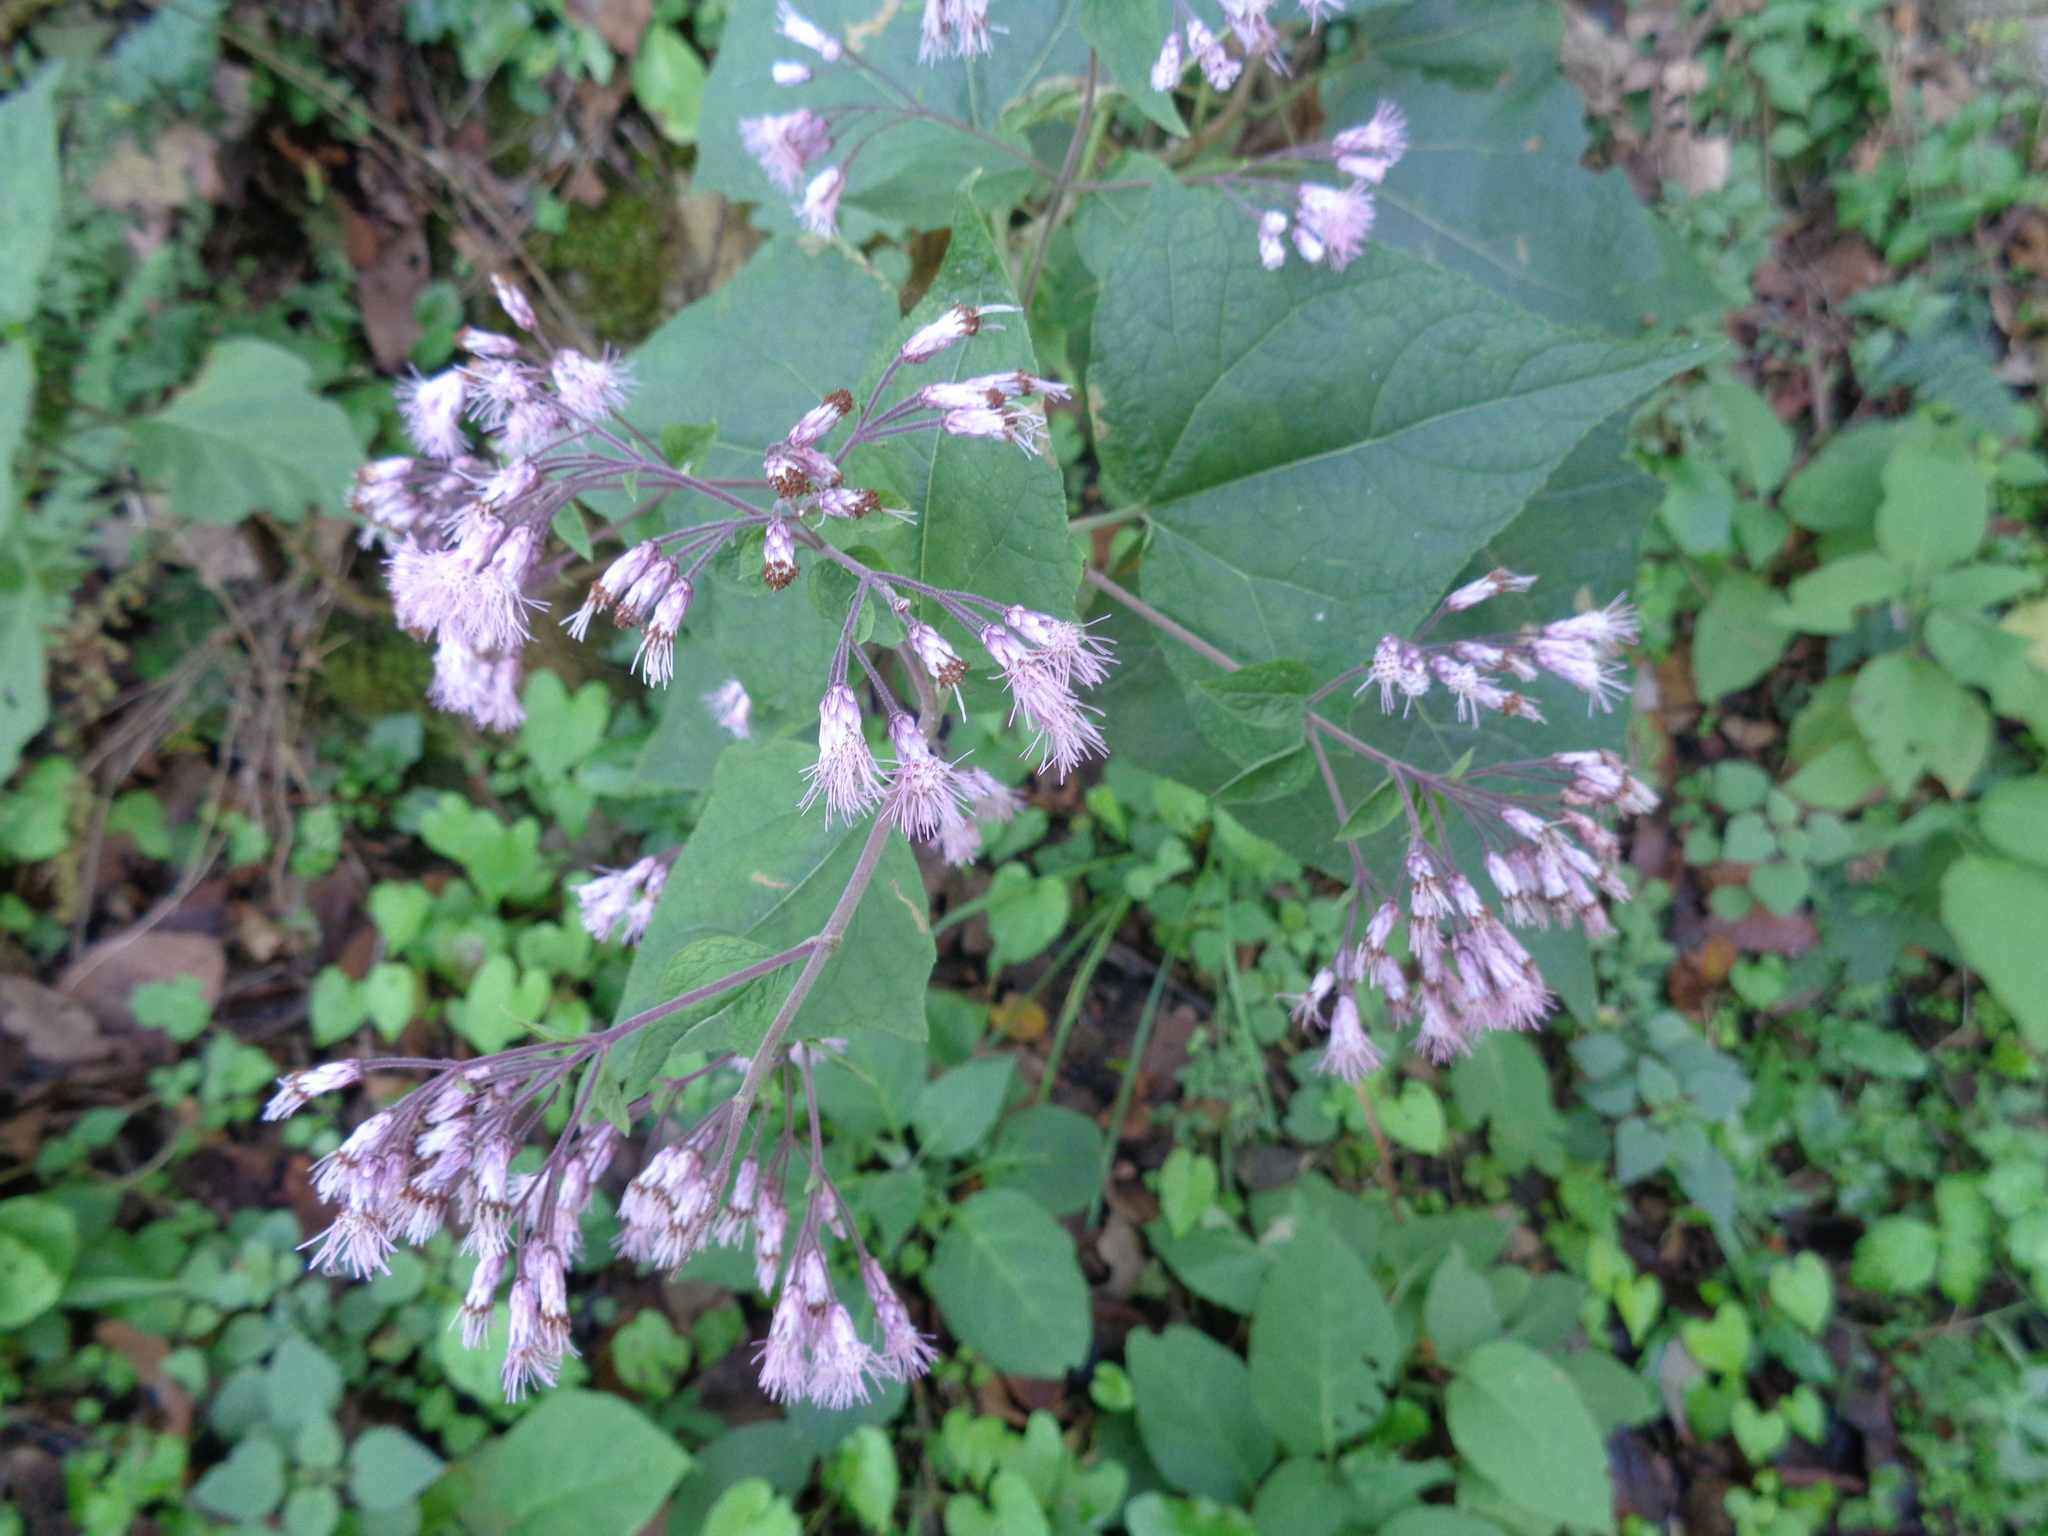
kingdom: Plantae
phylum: Tracheophyta
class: Magnoliopsida
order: Asterales
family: Asteraceae
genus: Peteravenia
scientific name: Peteravenia malvifolia
